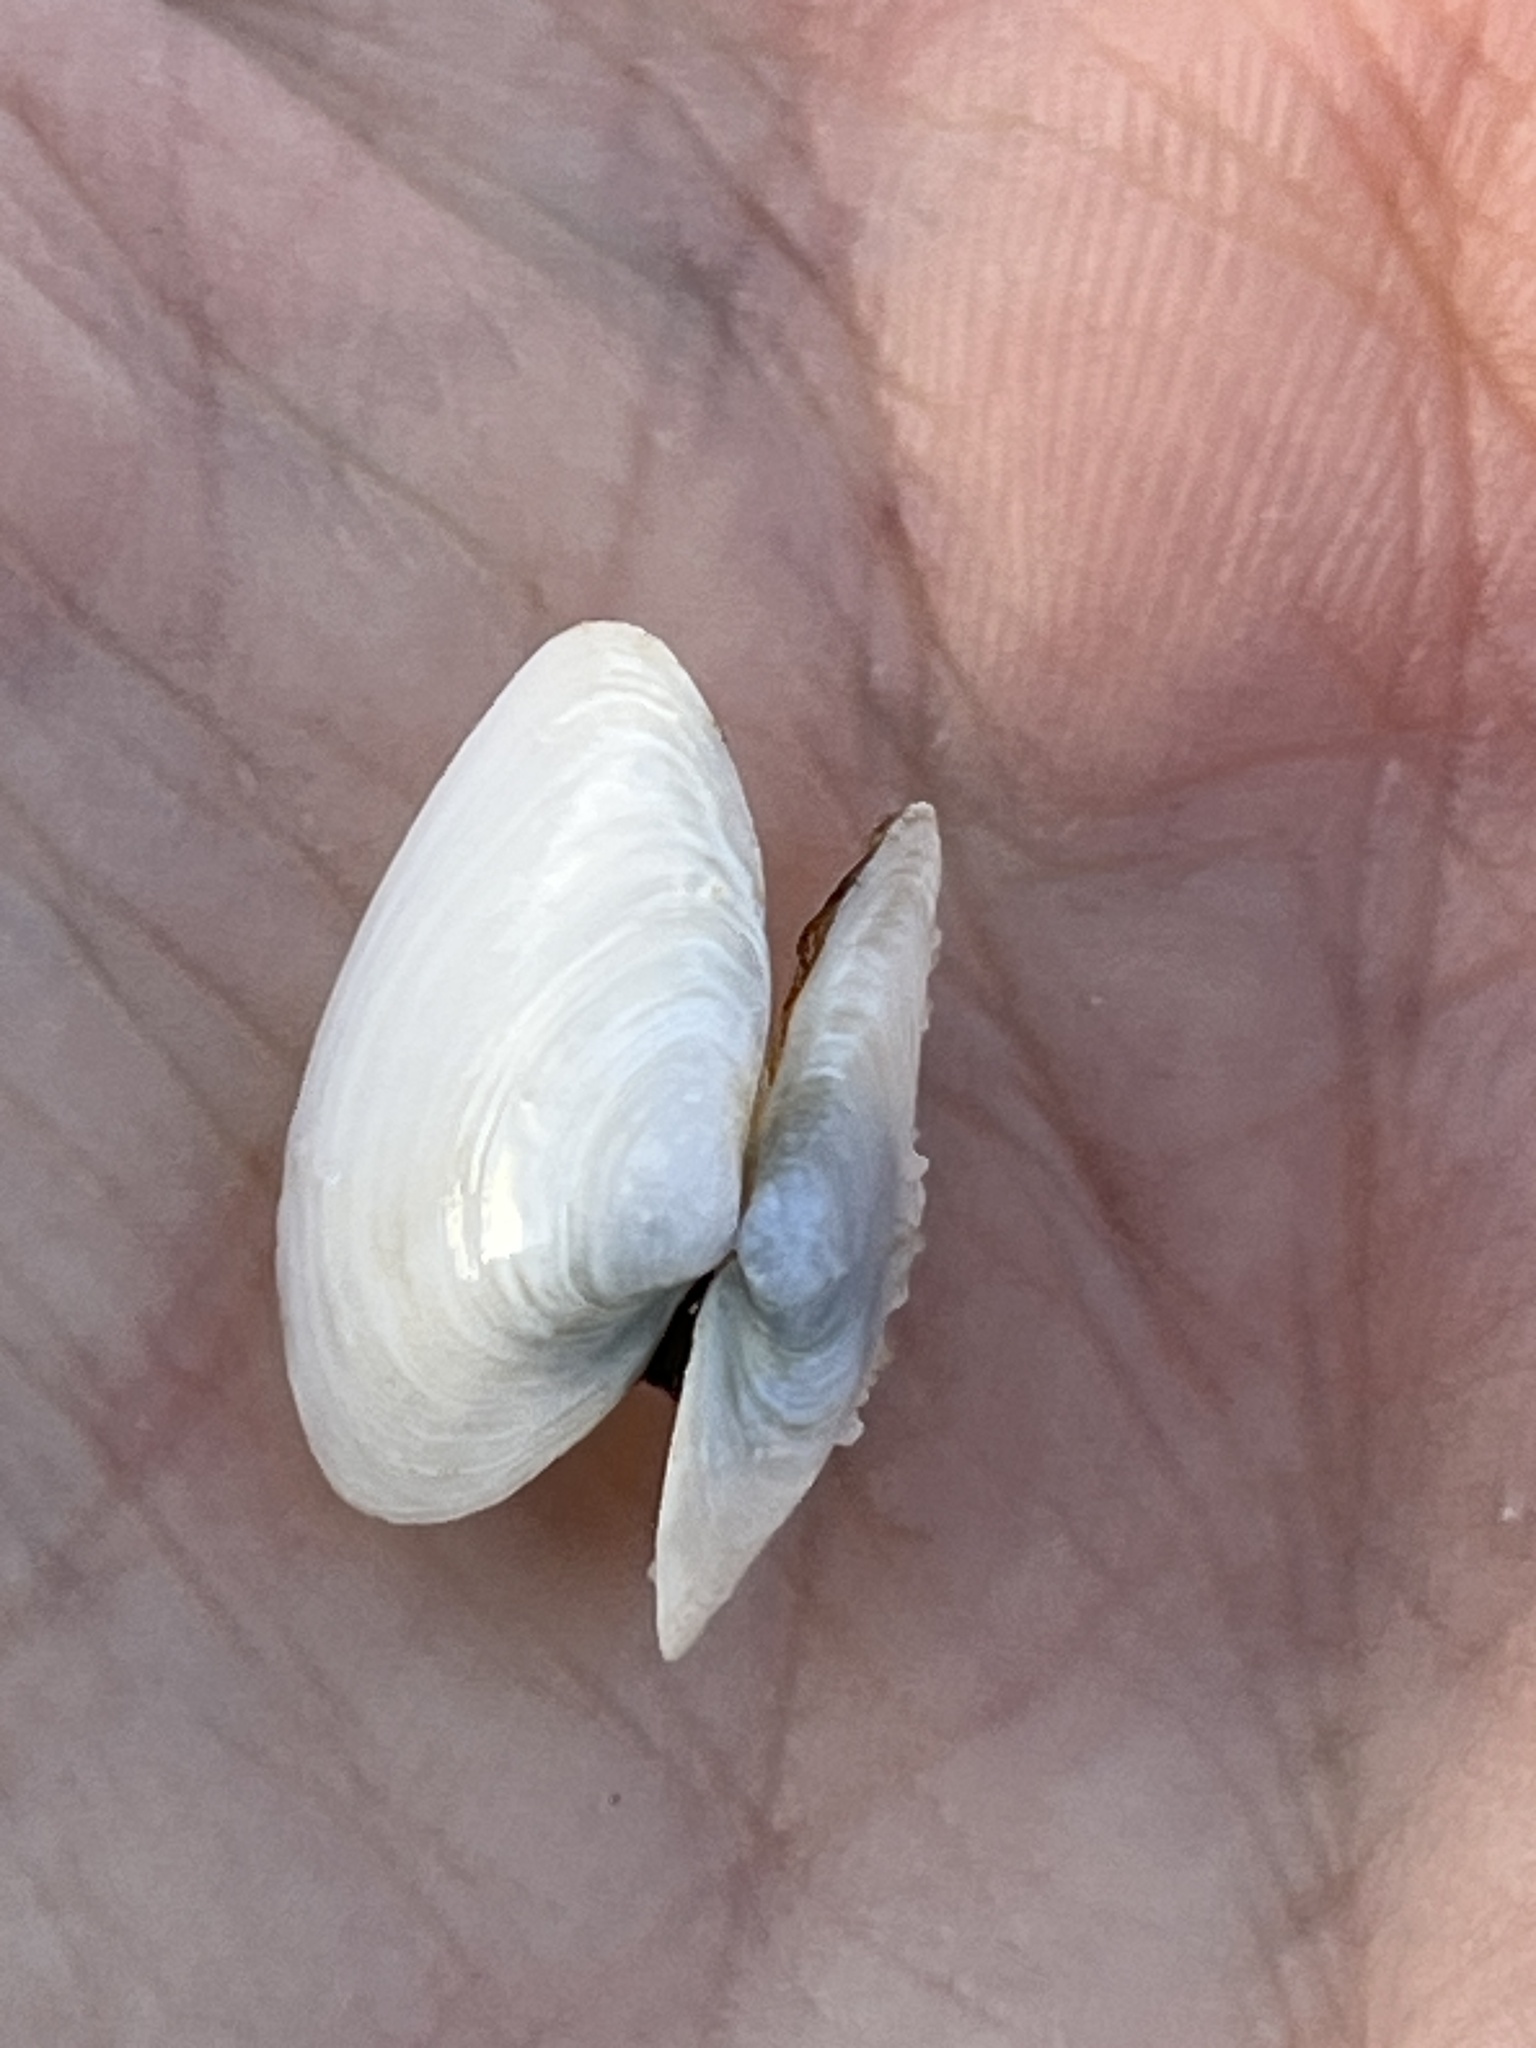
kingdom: Animalia
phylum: Mollusca
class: Bivalvia
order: Myida
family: Myidae
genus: Mya
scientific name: Mya arenaria
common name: Soft-shelled clam
